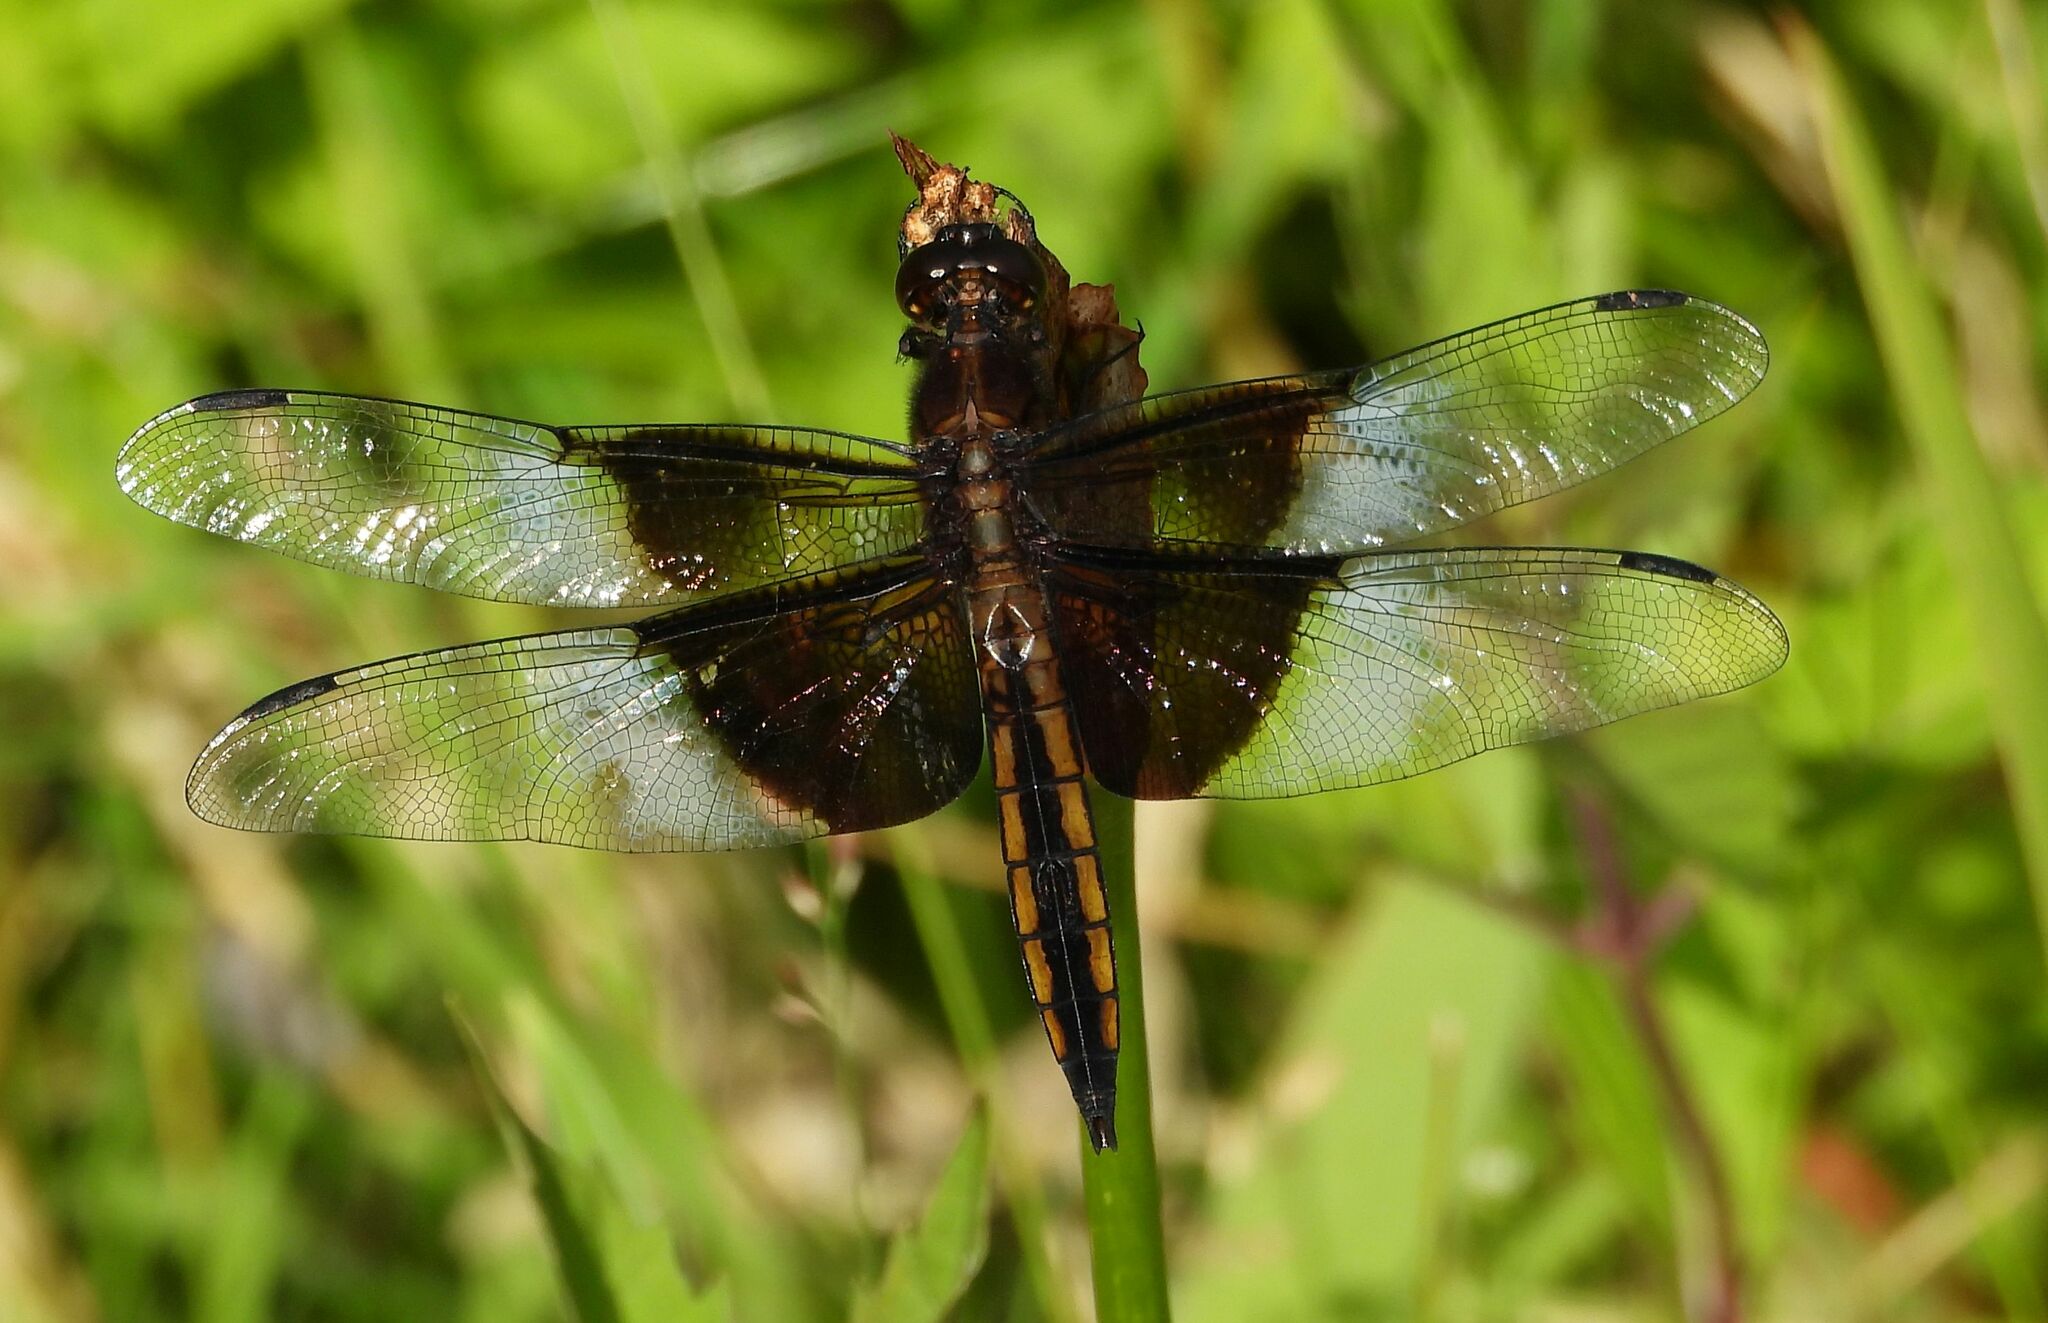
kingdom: Animalia
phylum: Arthropoda
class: Insecta
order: Odonata
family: Libellulidae
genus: Libellula
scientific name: Libellula luctuosa
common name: Widow skimmer
